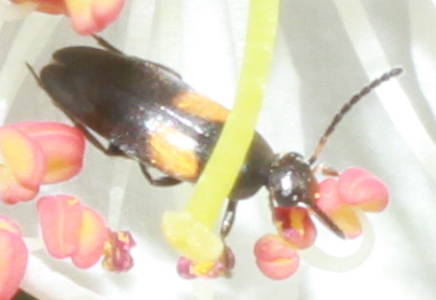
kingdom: Animalia
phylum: Arthropoda
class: Insecta
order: Coleoptera
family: Scraptiidae
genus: Anaspis
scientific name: Anaspis fasciata
